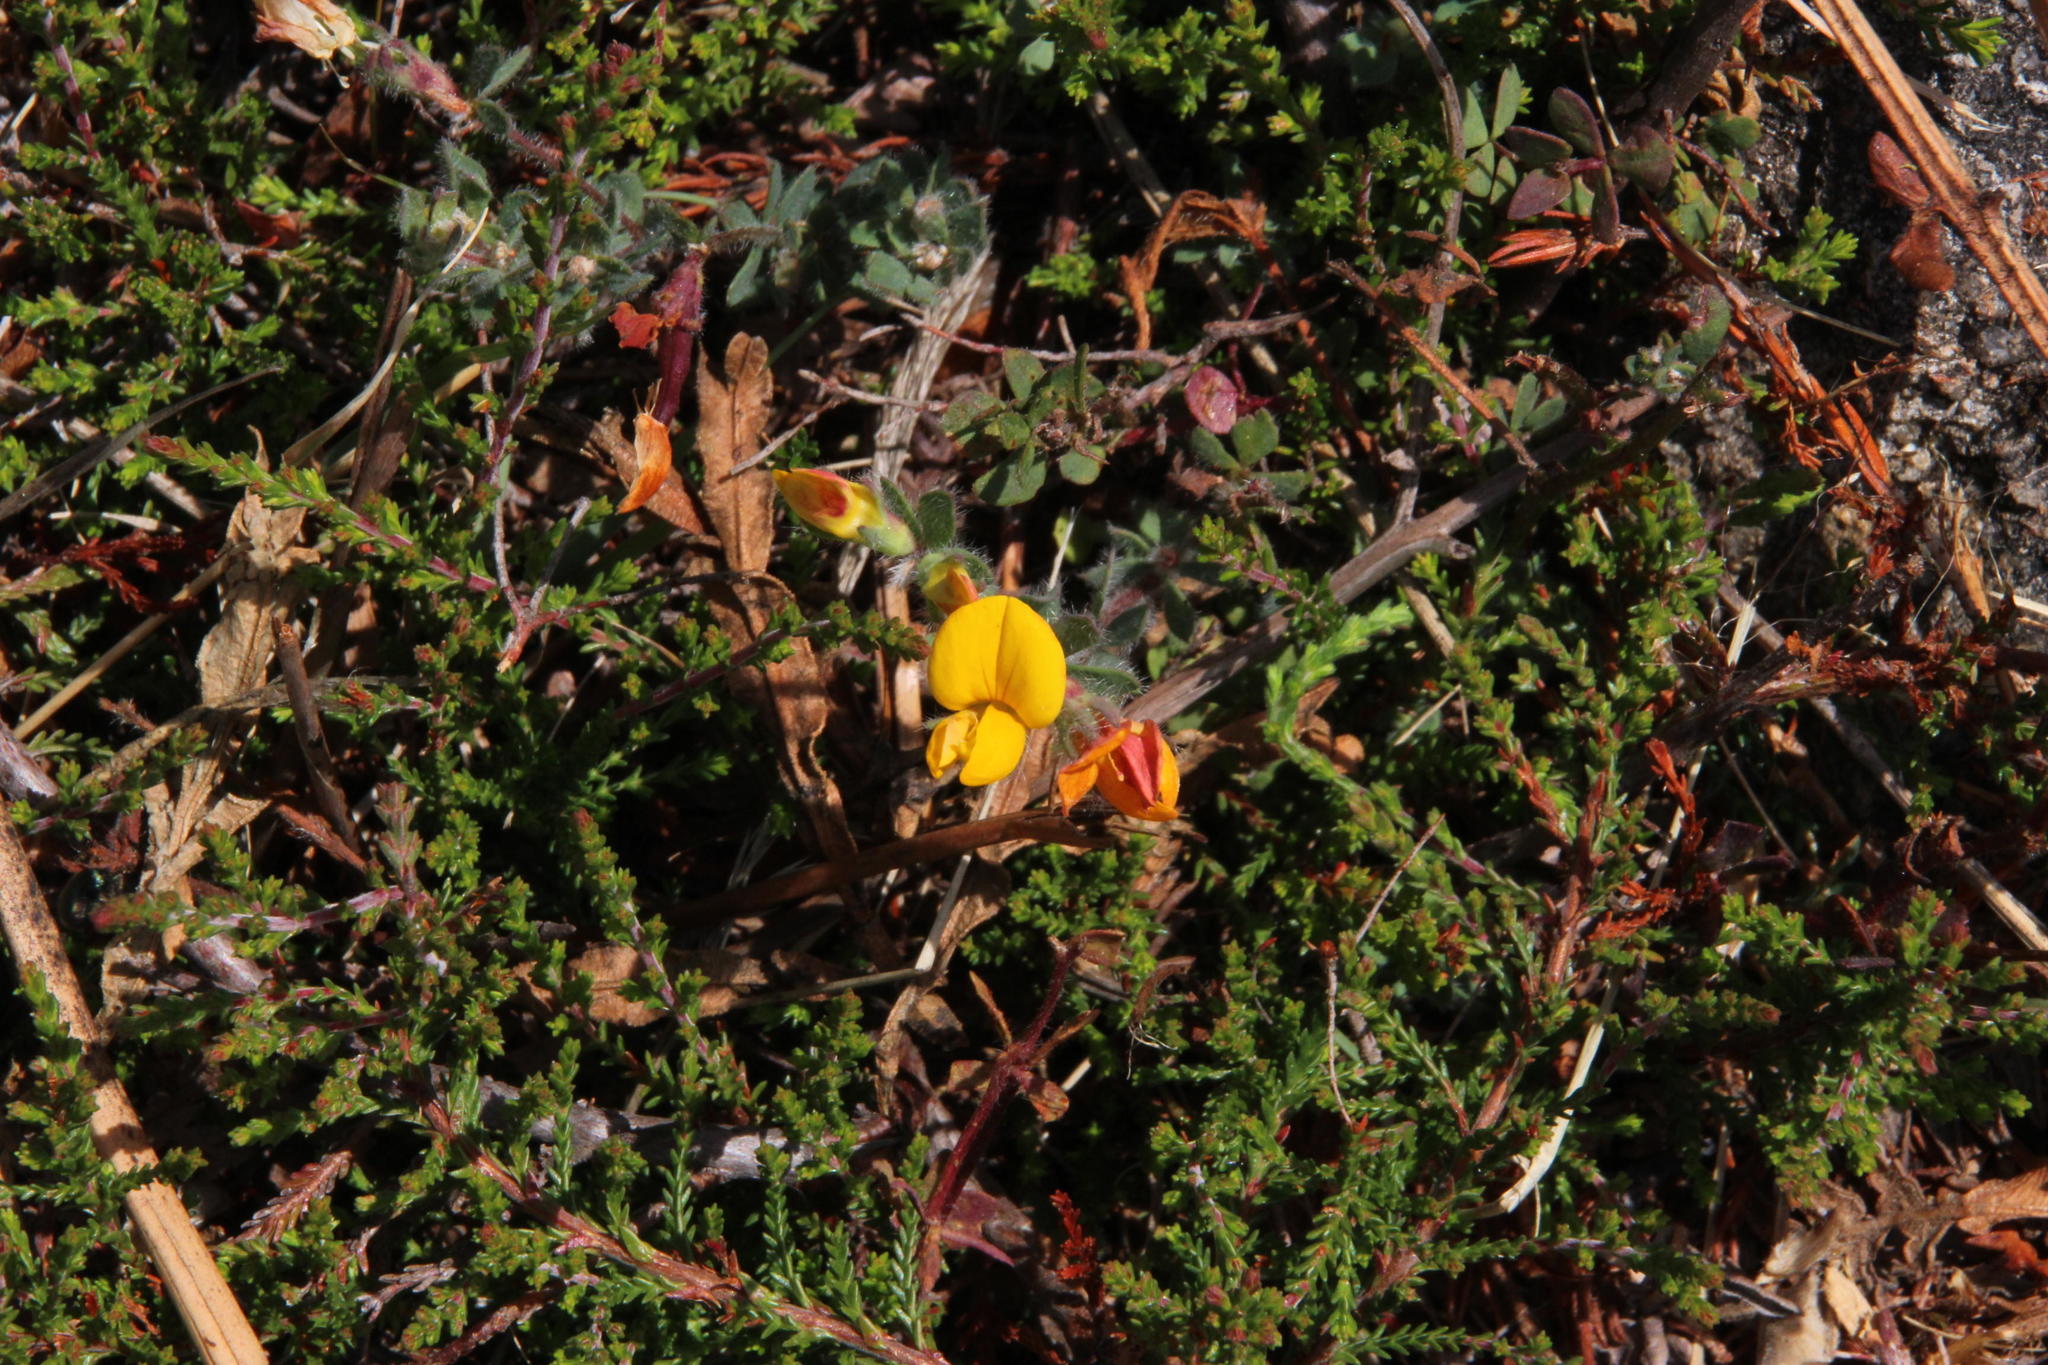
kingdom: Plantae
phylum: Tracheophyta
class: Magnoliopsida
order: Fabales
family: Fabaceae
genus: Lotus
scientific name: Lotus hispidus
